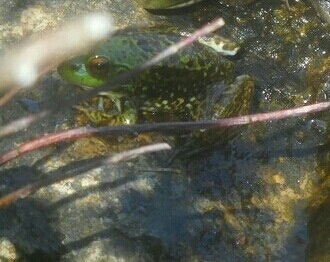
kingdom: Animalia
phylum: Chordata
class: Amphibia
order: Anura
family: Ranidae
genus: Lithobates
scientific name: Lithobates septentrionalis
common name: Mink frog
